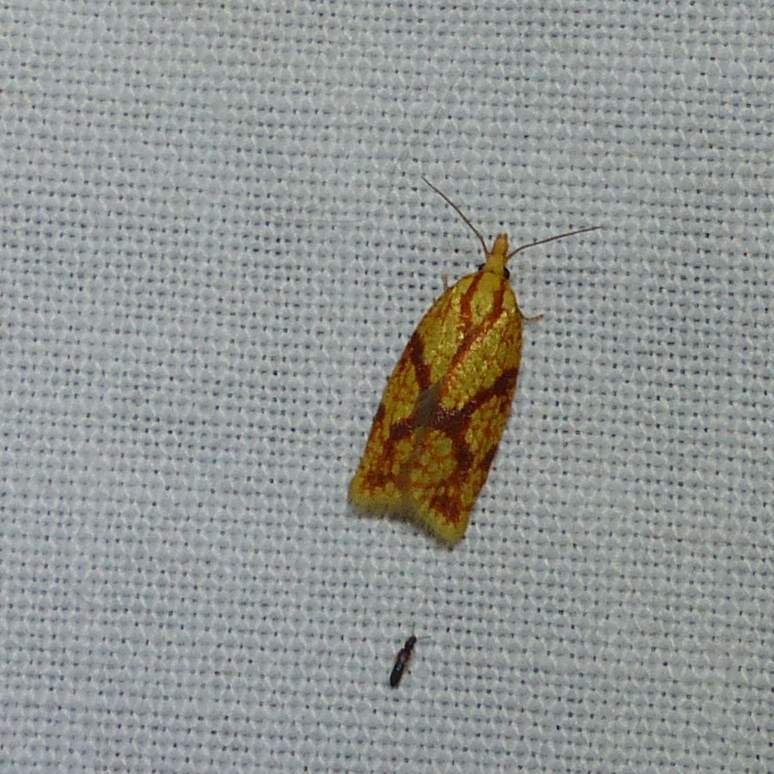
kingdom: Animalia
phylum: Arthropoda
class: Insecta
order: Lepidoptera
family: Tortricidae
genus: Sparganothis
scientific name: Sparganothis sulfureana
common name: Sparganothis fruitworm moth
